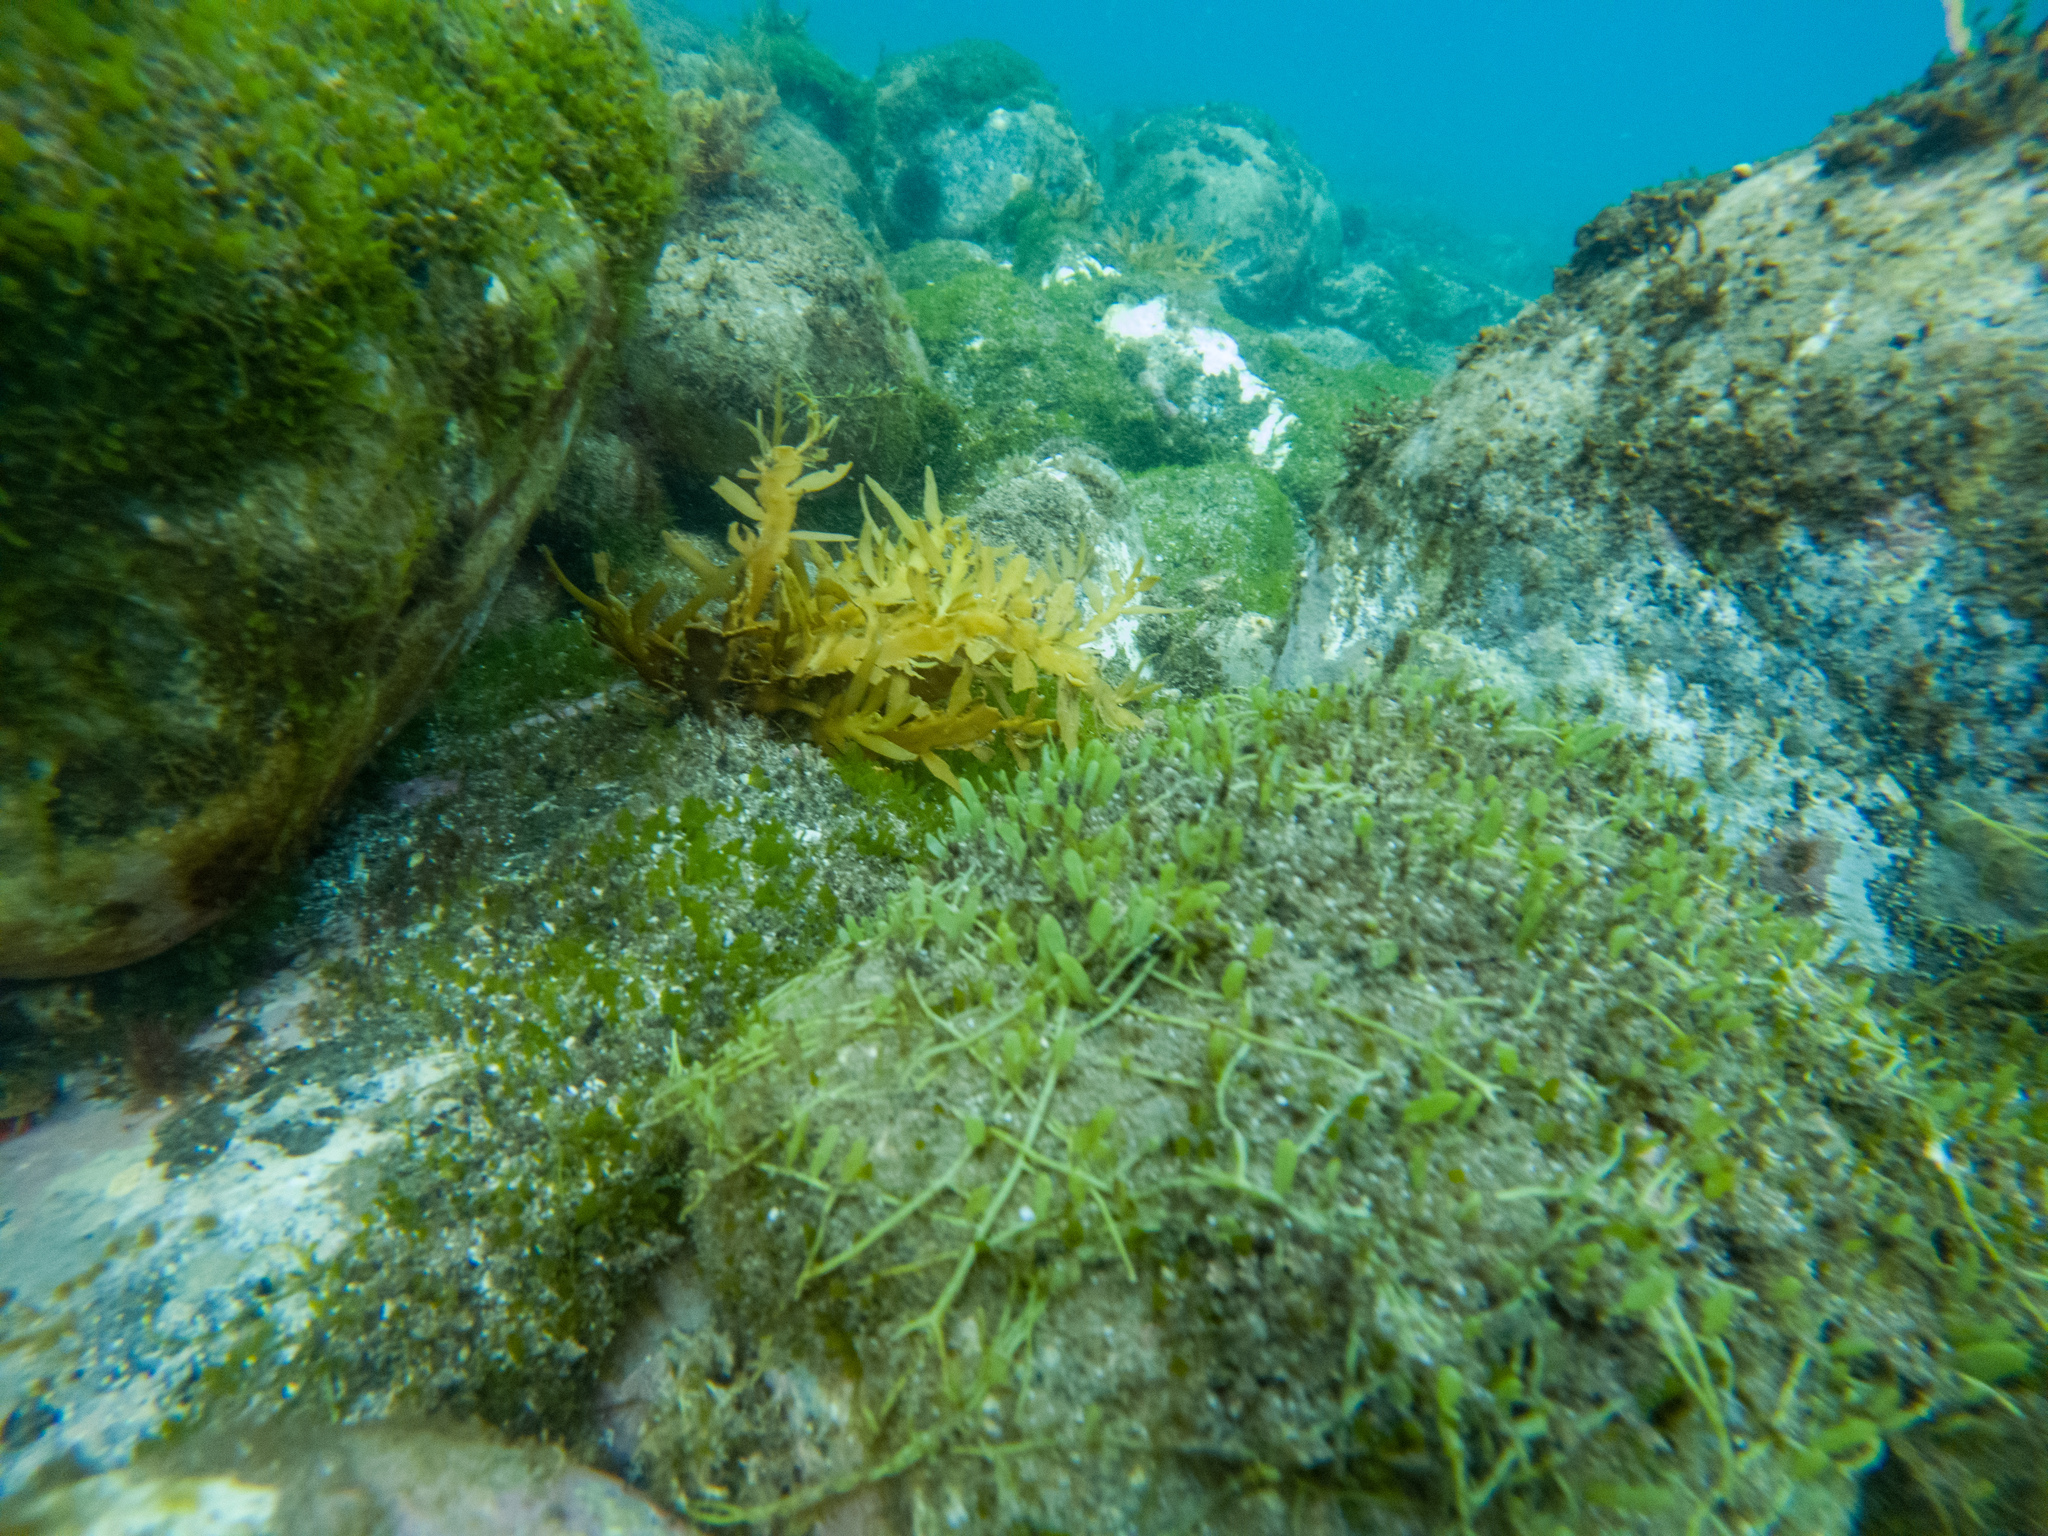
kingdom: Plantae
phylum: Chlorophyta
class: Ulvophyceae
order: Bryopsidales
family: Caulerpaceae
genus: Caulerpa
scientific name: Caulerpa brachypus
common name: Macroalgae
